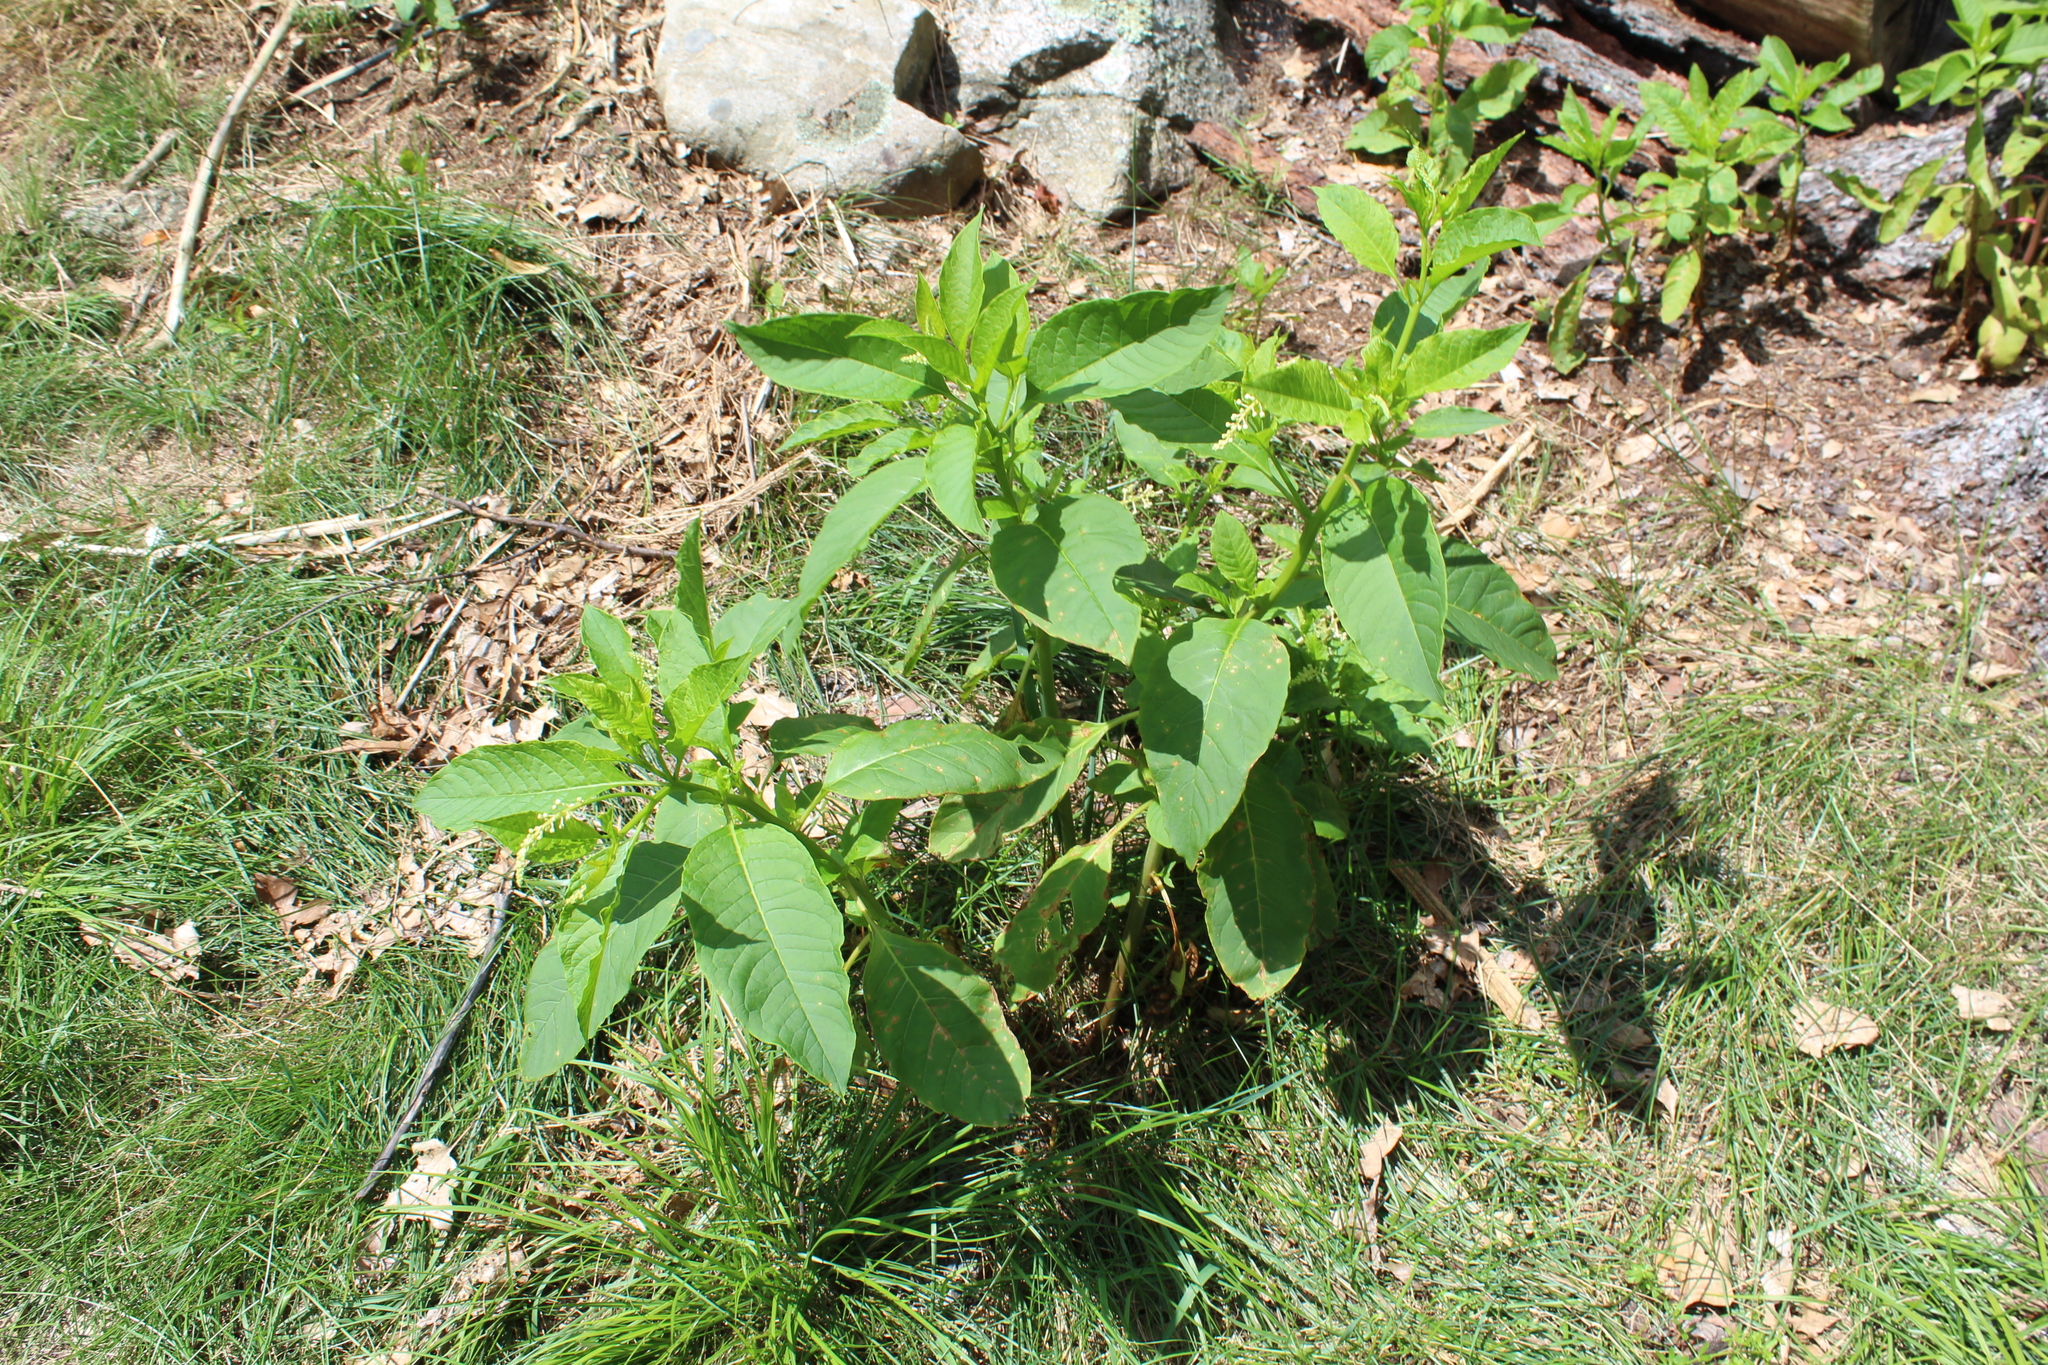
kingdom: Plantae
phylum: Tracheophyta
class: Magnoliopsida
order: Caryophyllales
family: Phytolaccaceae
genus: Phytolacca
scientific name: Phytolacca americana
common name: American pokeweed
